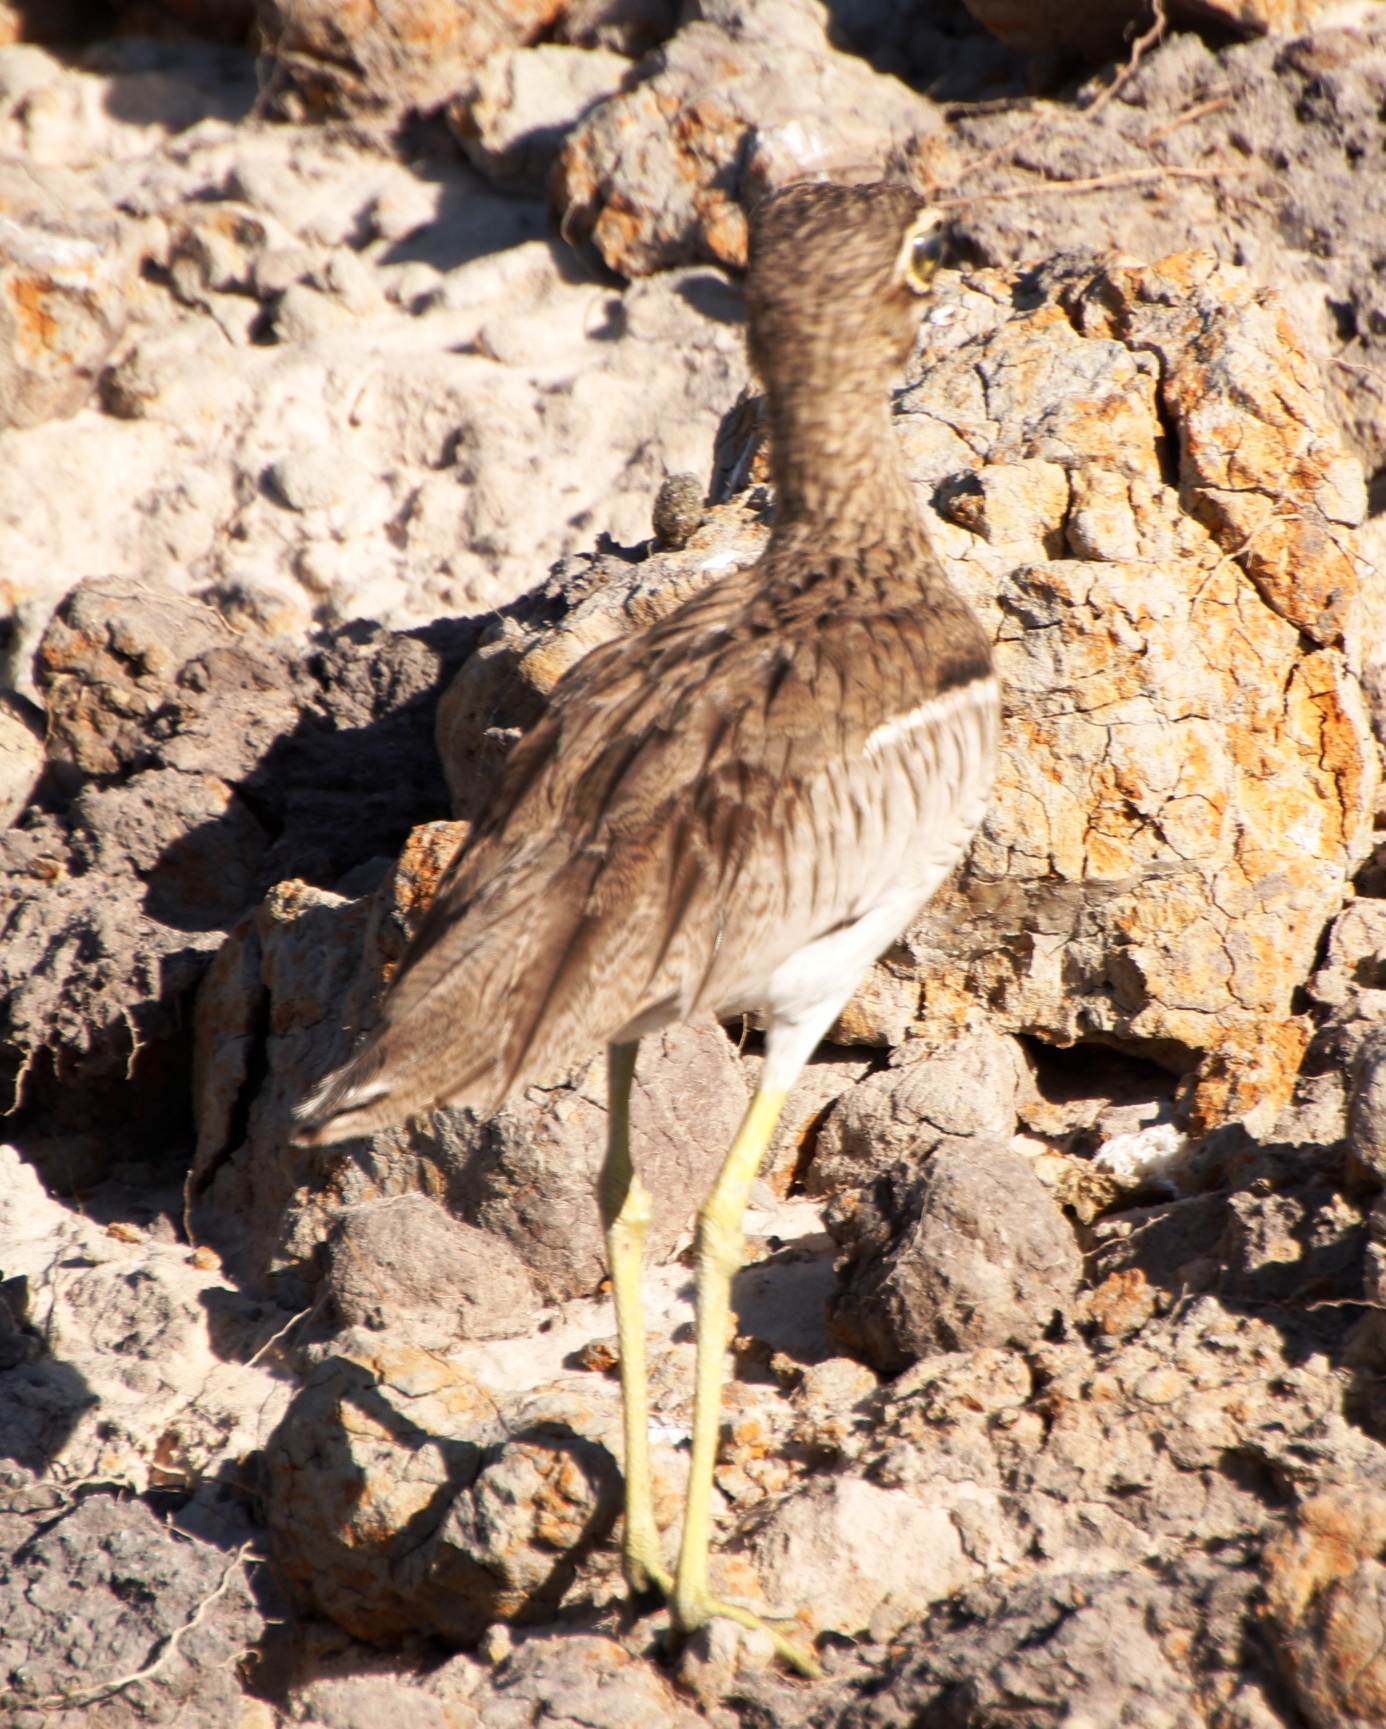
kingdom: Animalia
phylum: Chordata
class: Aves
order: Charadriiformes
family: Burhinidae
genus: Burhinus
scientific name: Burhinus vermiculatus
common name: Water thick-knee
